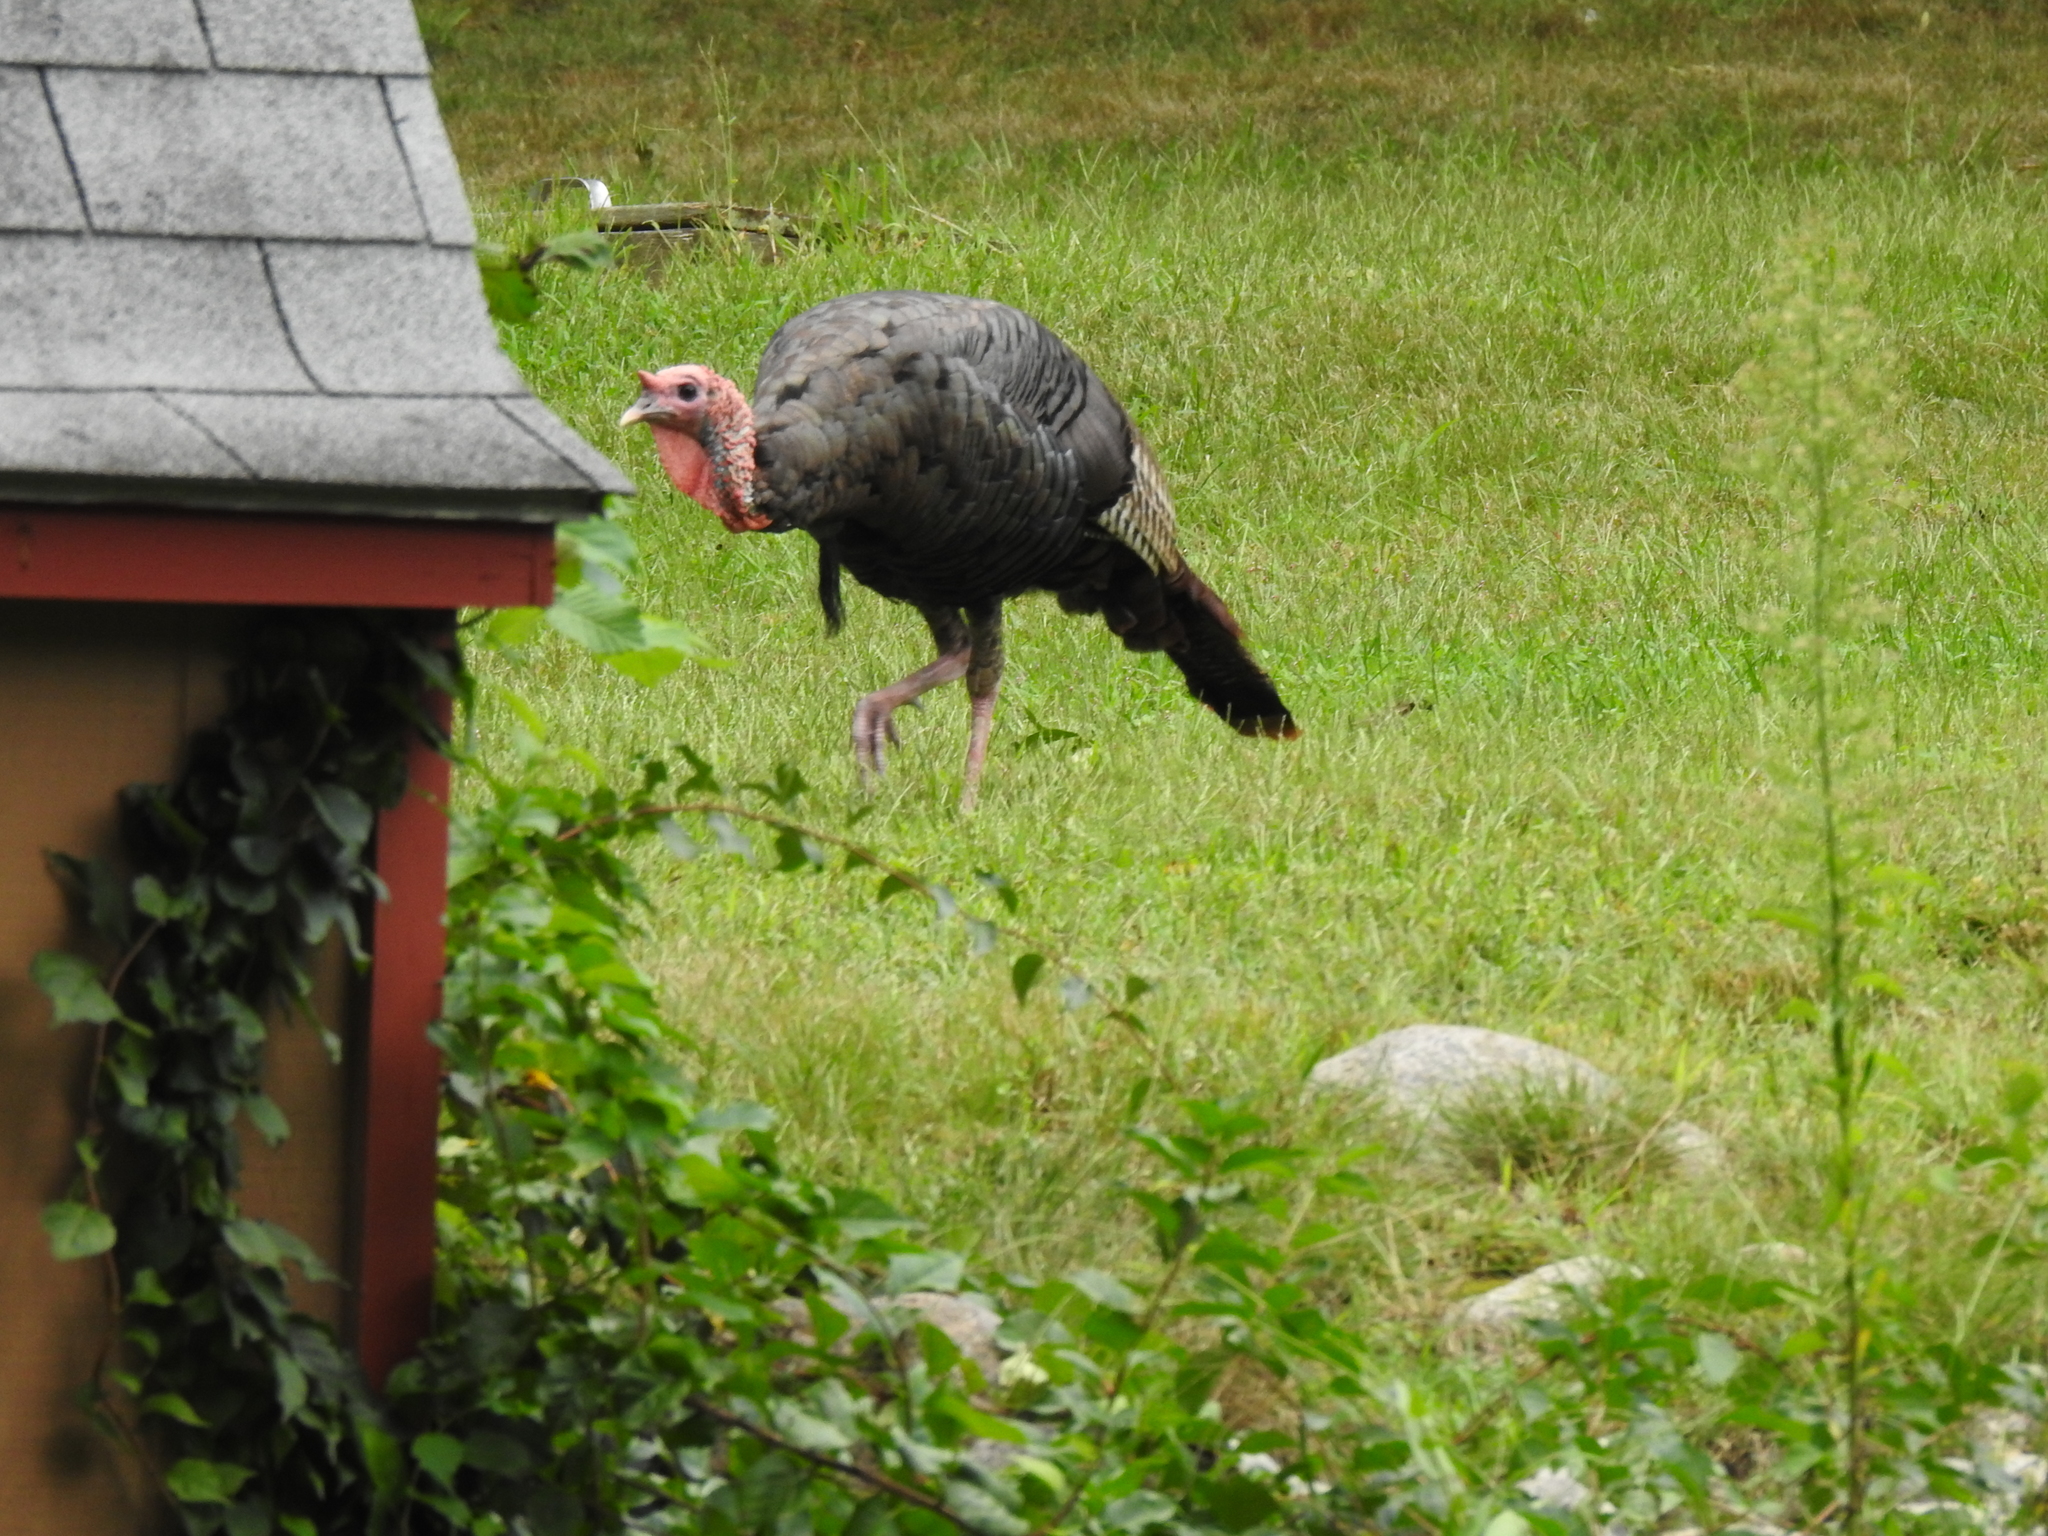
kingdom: Animalia
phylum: Chordata
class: Aves
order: Galliformes
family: Phasianidae
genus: Meleagris
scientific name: Meleagris gallopavo
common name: Wild turkey
